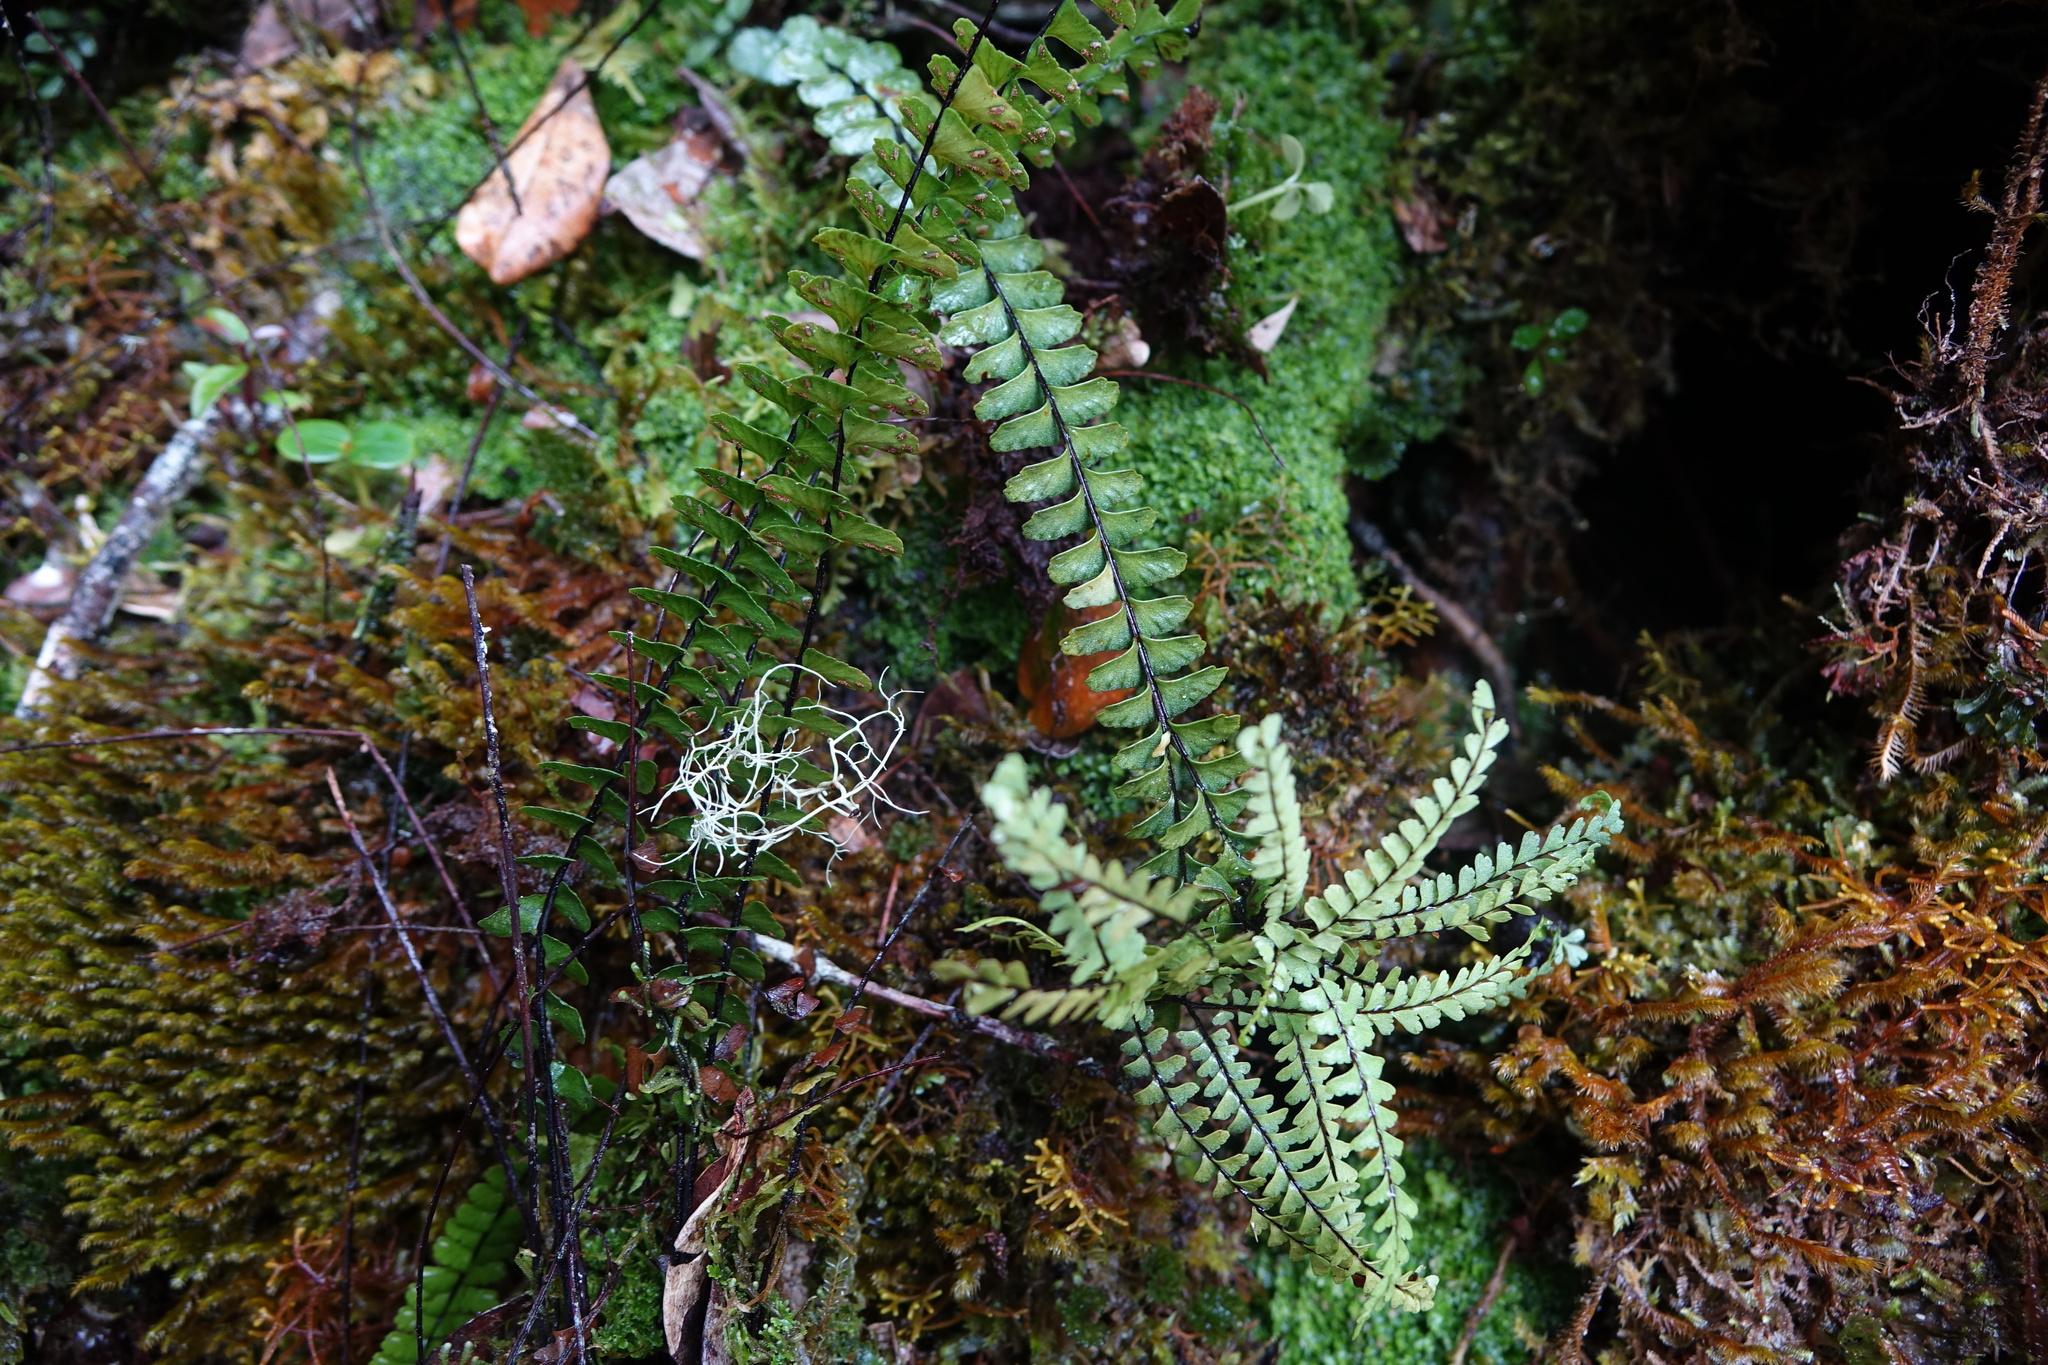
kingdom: Plantae
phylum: Tracheophyta
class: Polypodiopsida
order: Polypodiales
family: Aspleniaceae
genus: Asplenium
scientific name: Asplenium normale
